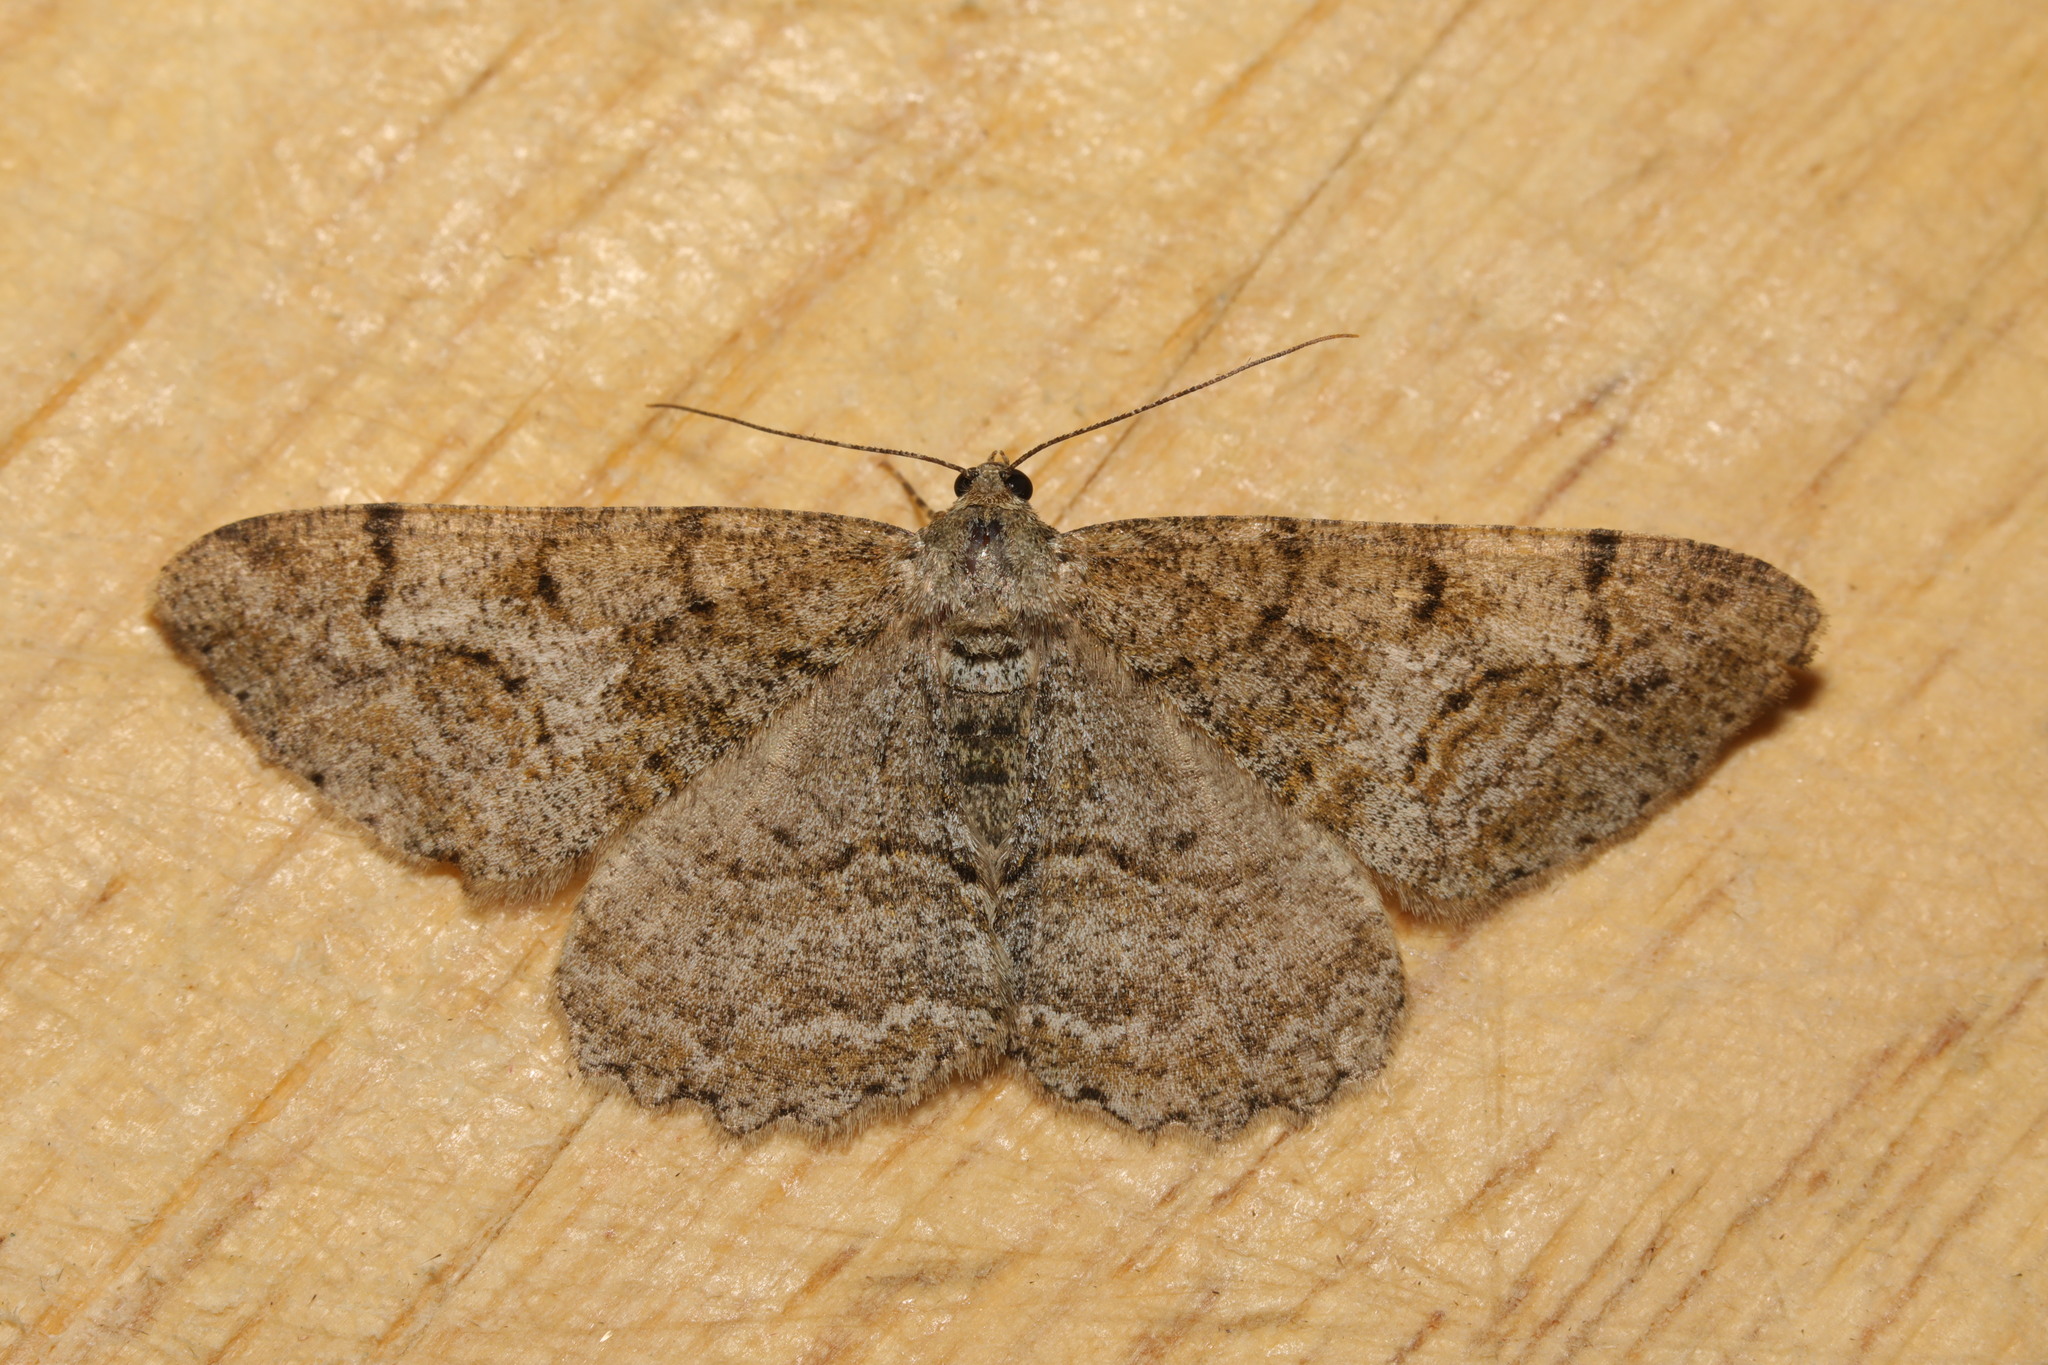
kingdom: Animalia
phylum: Arthropoda
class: Insecta
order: Lepidoptera
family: Geometridae
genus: Alcis
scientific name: Alcis repandata
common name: Mottled beauty
